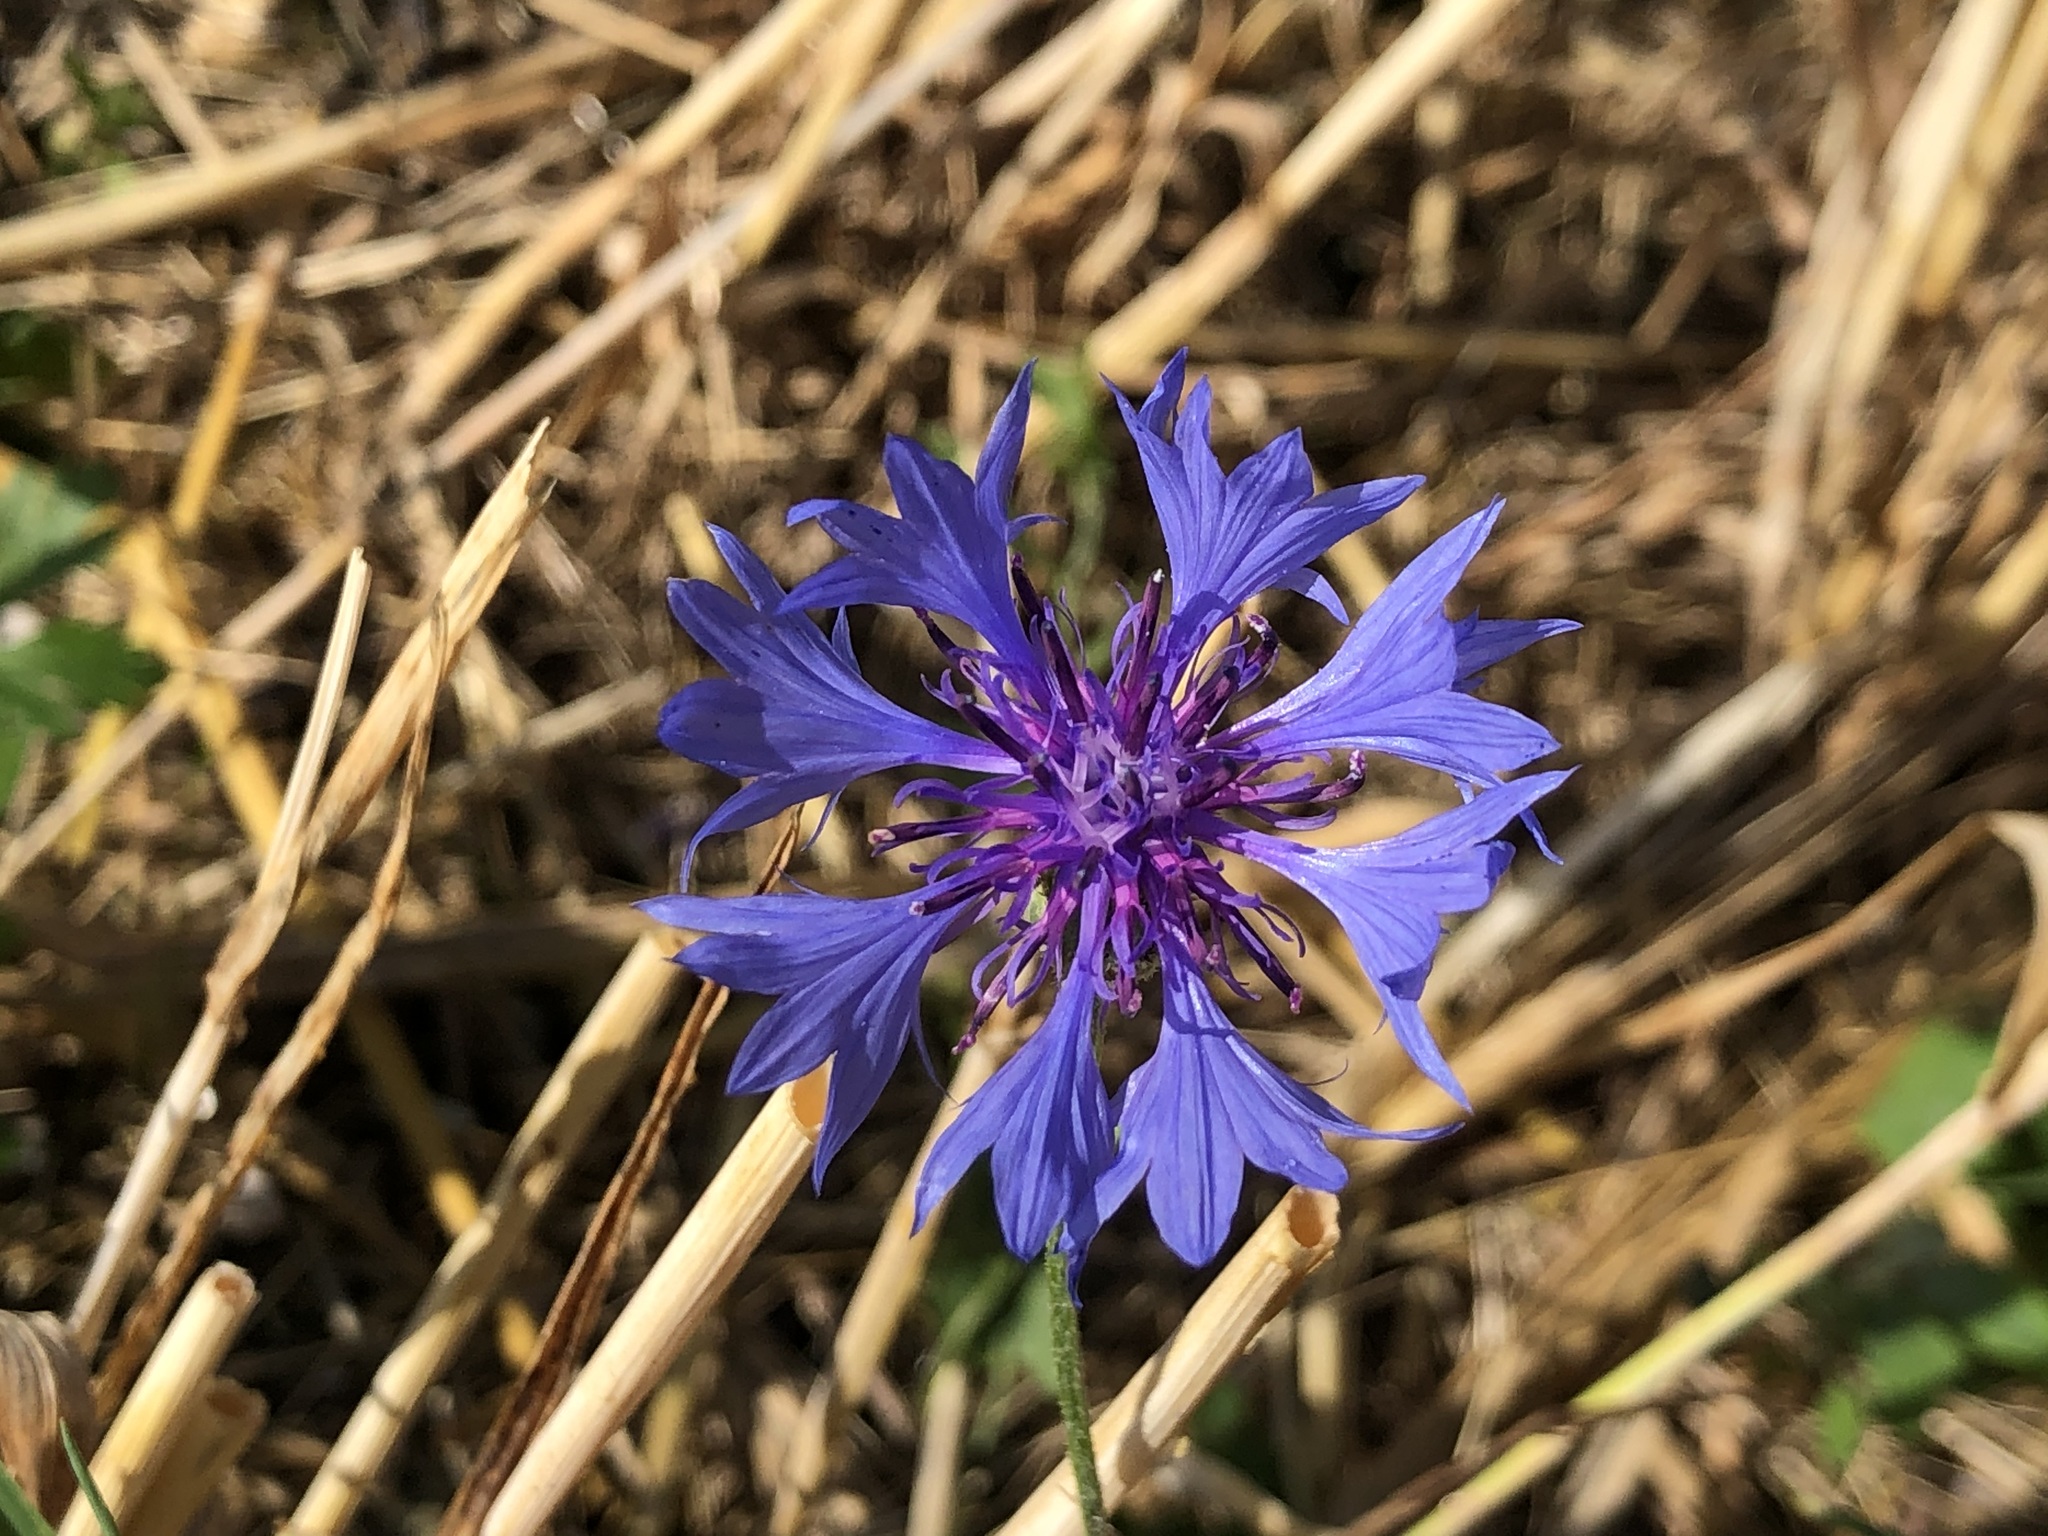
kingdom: Plantae
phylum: Tracheophyta
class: Magnoliopsida
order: Asterales
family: Asteraceae
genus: Centaurea
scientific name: Centaurea cyanus
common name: Cornflower
